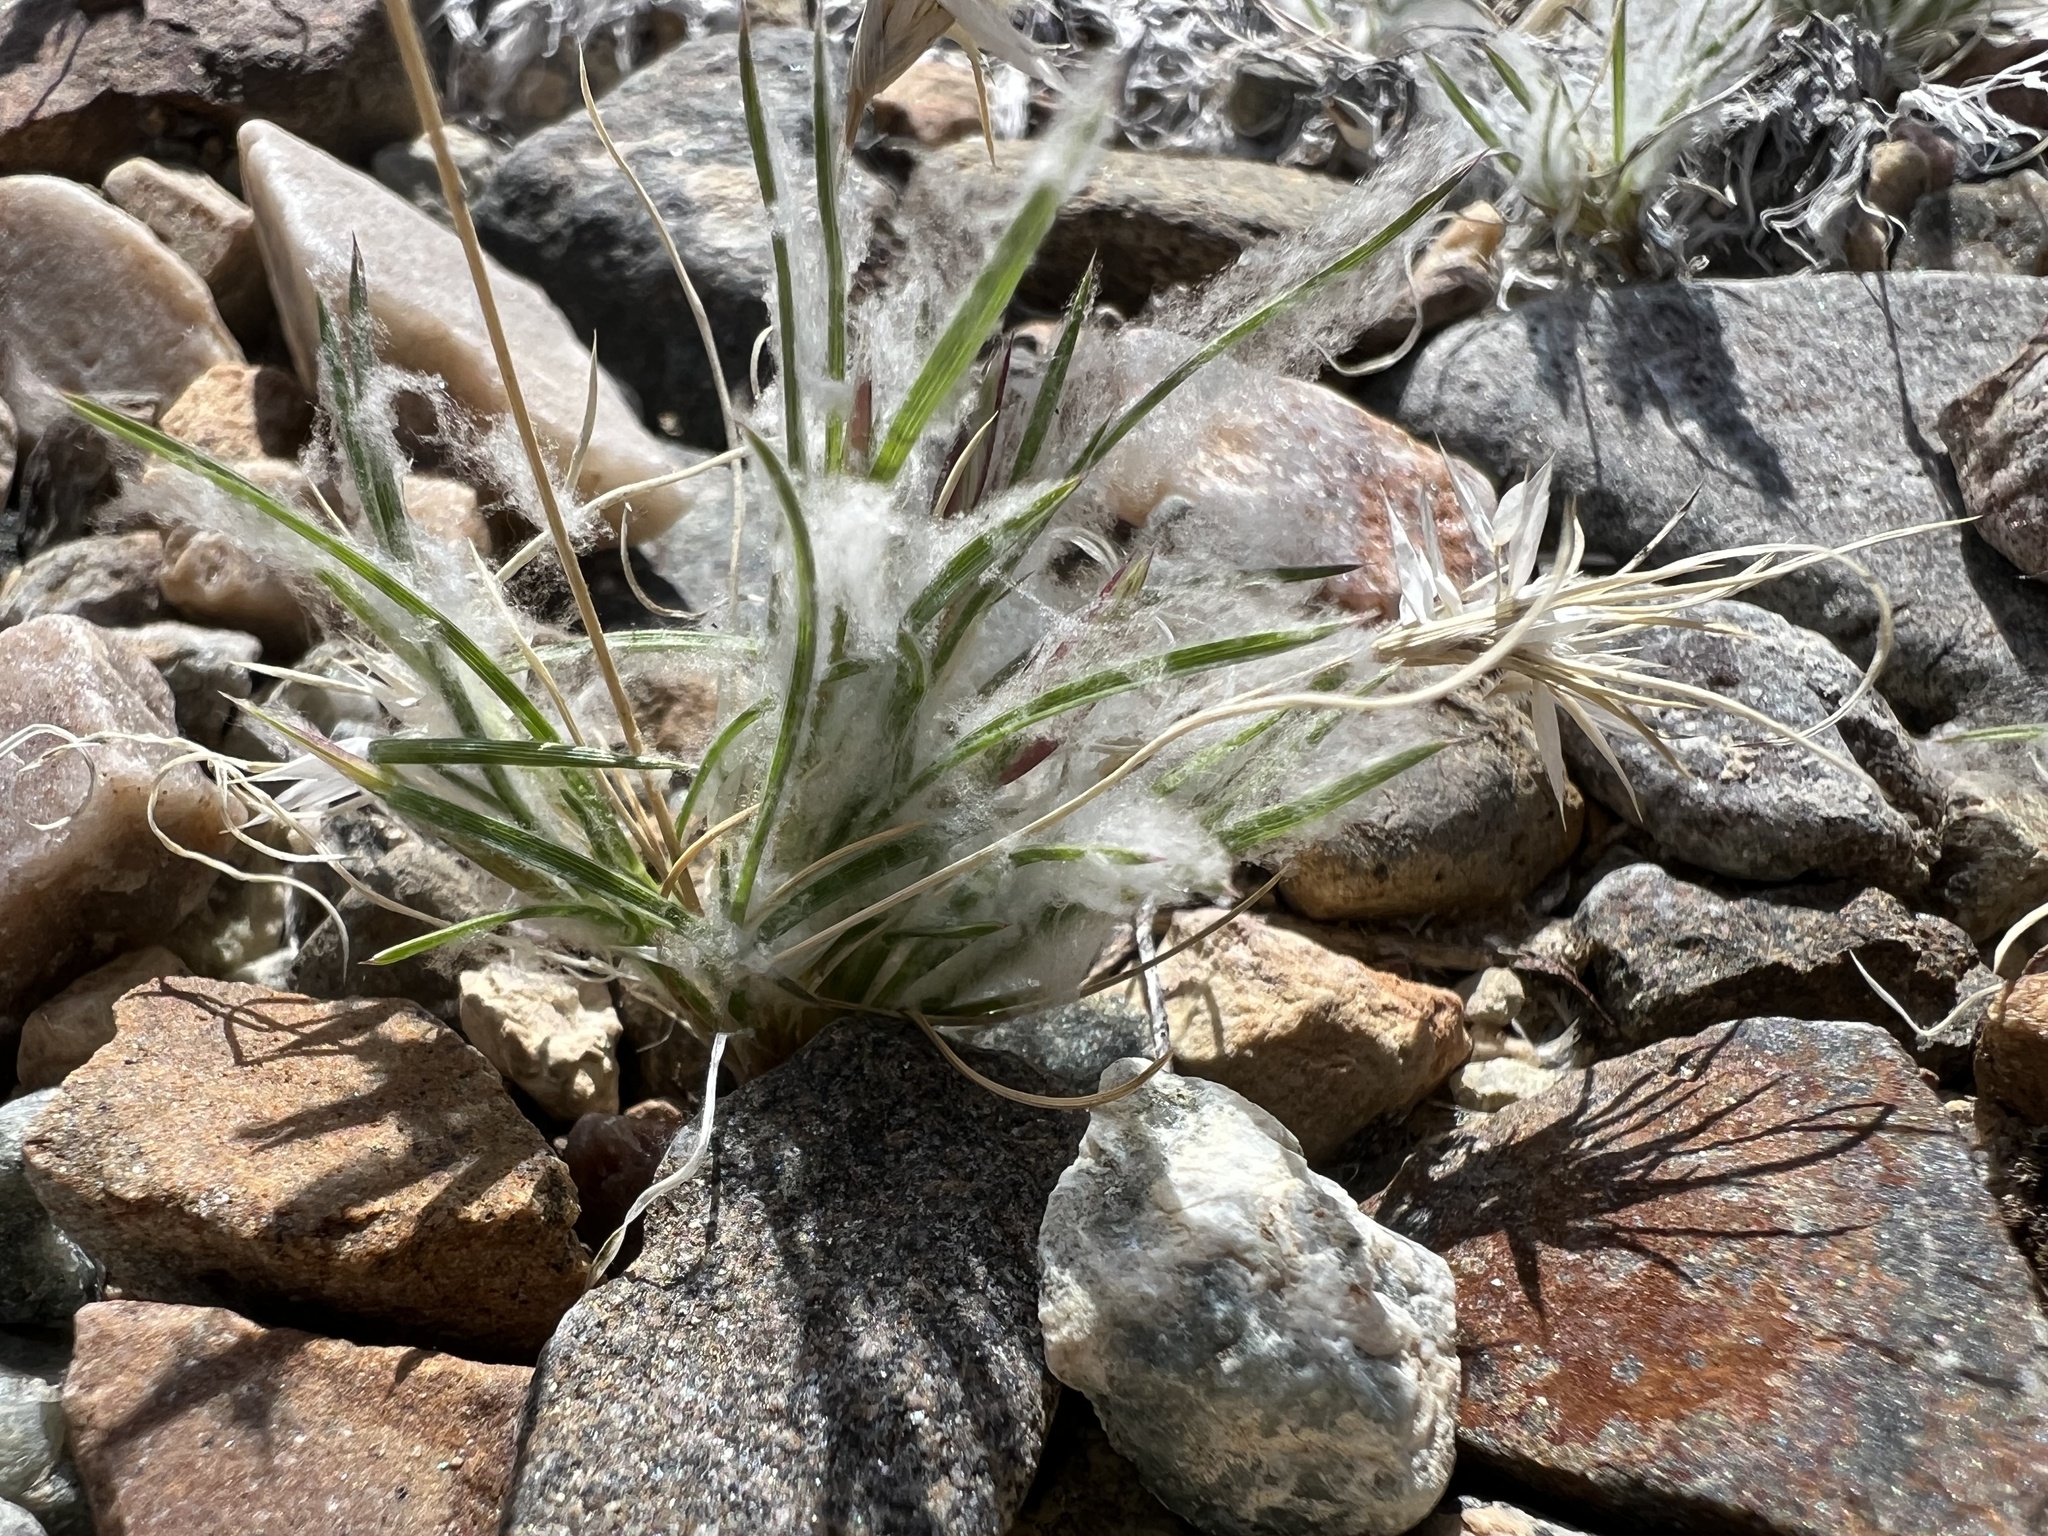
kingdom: Plantae
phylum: Tracheophyta
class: Liliopsida
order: Poales
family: Poaceae
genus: Dasyochloa
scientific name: Dasyochloa pulchella
